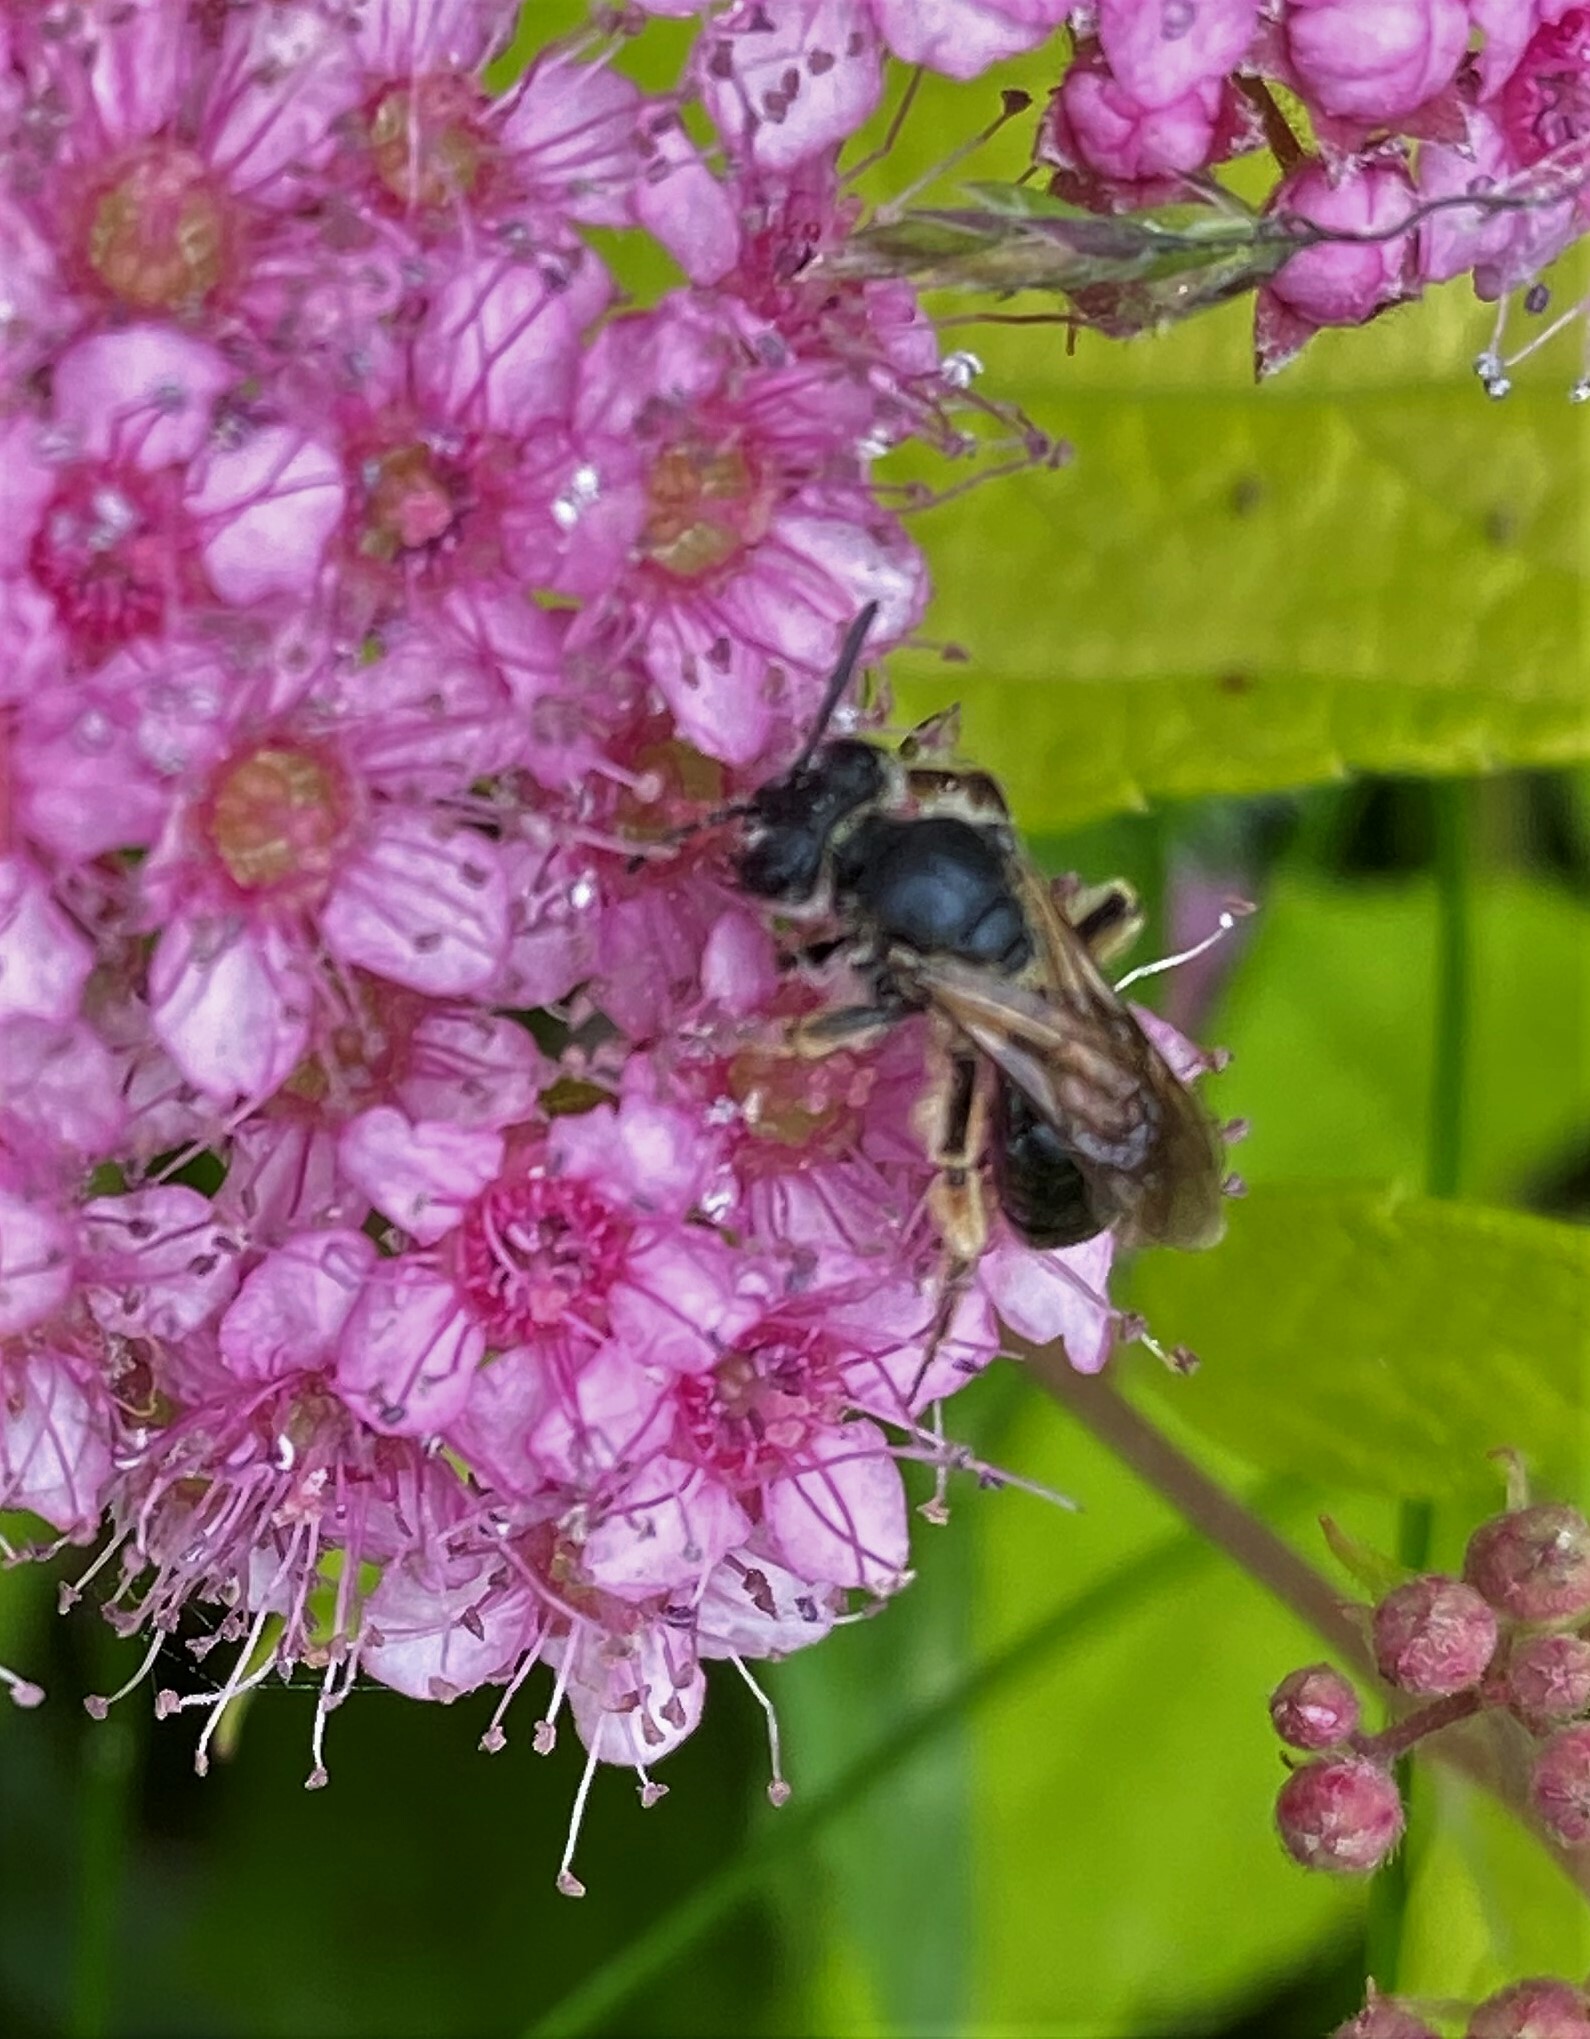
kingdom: Animalia
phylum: Arthropoda
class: Insecta
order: Hymenoptera
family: Andrenidae
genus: Andrena
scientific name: Andrena crataegi
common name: Hawthorn mining bee
